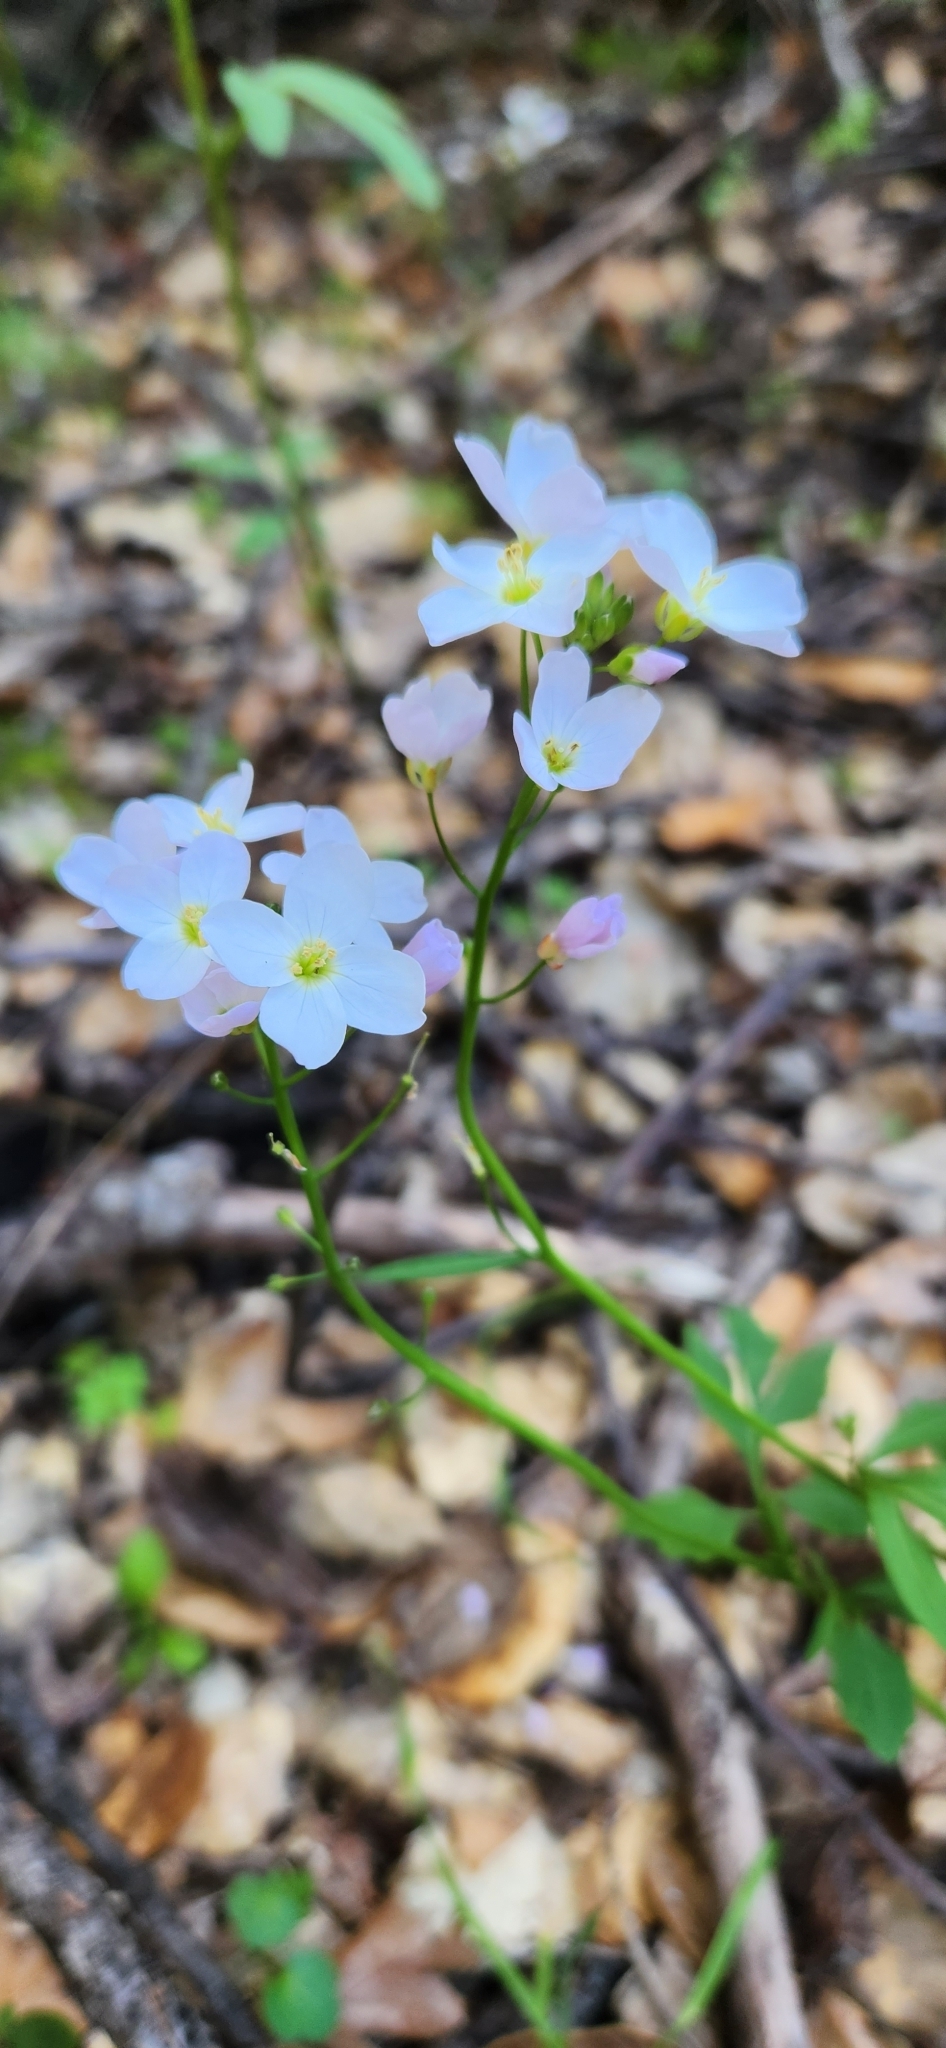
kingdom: Plantae
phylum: Tracheophyta
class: Magnoliopsida
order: Brassicales
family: Brassicaceae
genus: Cardamine
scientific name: Cardamine californica
